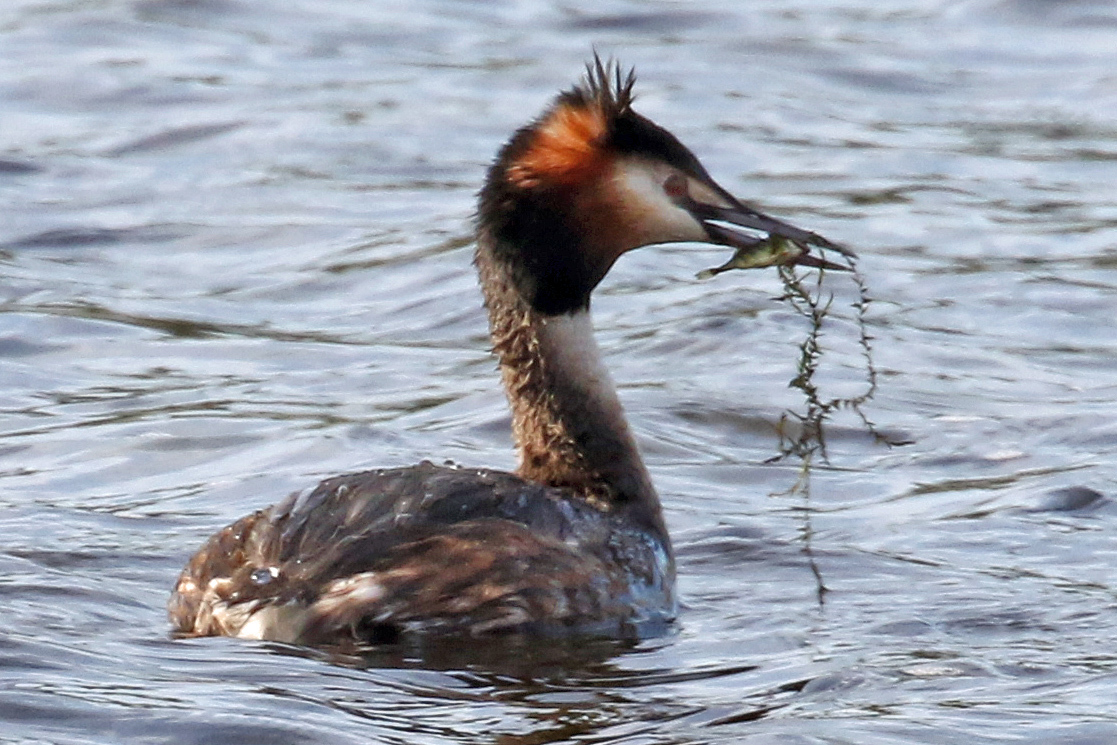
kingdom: Animalia
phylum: Chordata
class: Aves
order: Podicipediformes
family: Podicipedidae
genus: Podiceps
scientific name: Podiceps cristatus
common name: Great crested grebe
